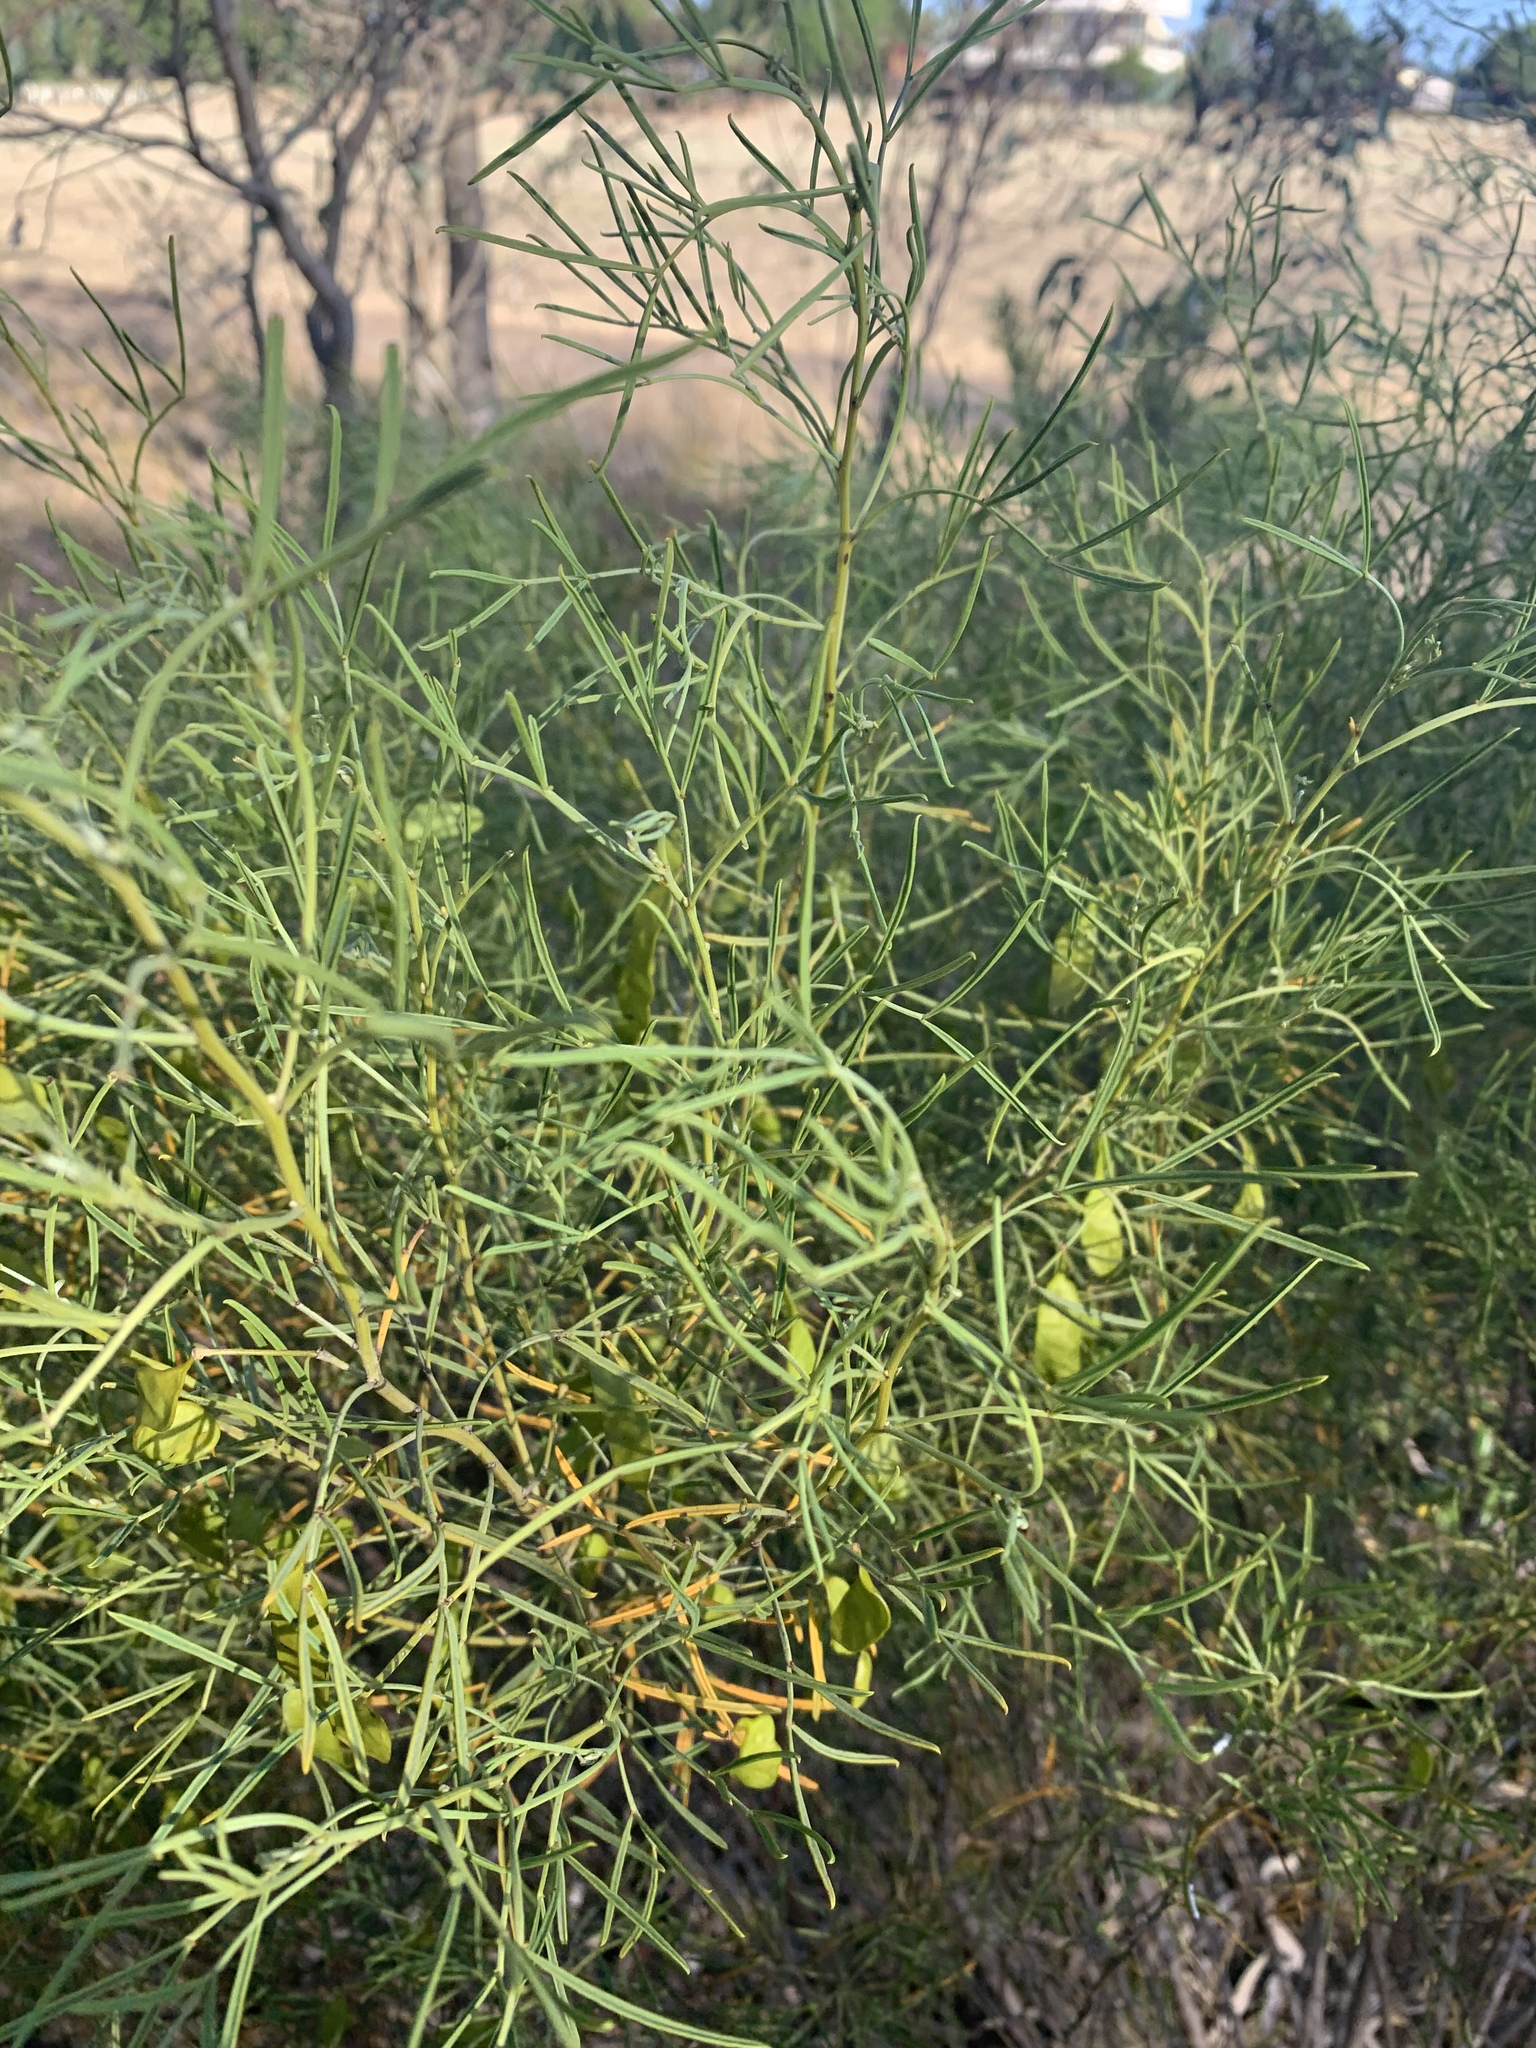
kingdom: Plantae
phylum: Tracheophyta
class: Magnoliopsida
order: Fabales
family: Fabaceae
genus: Senna
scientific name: Senna artemisioides
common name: Burnt-leaved acacia
